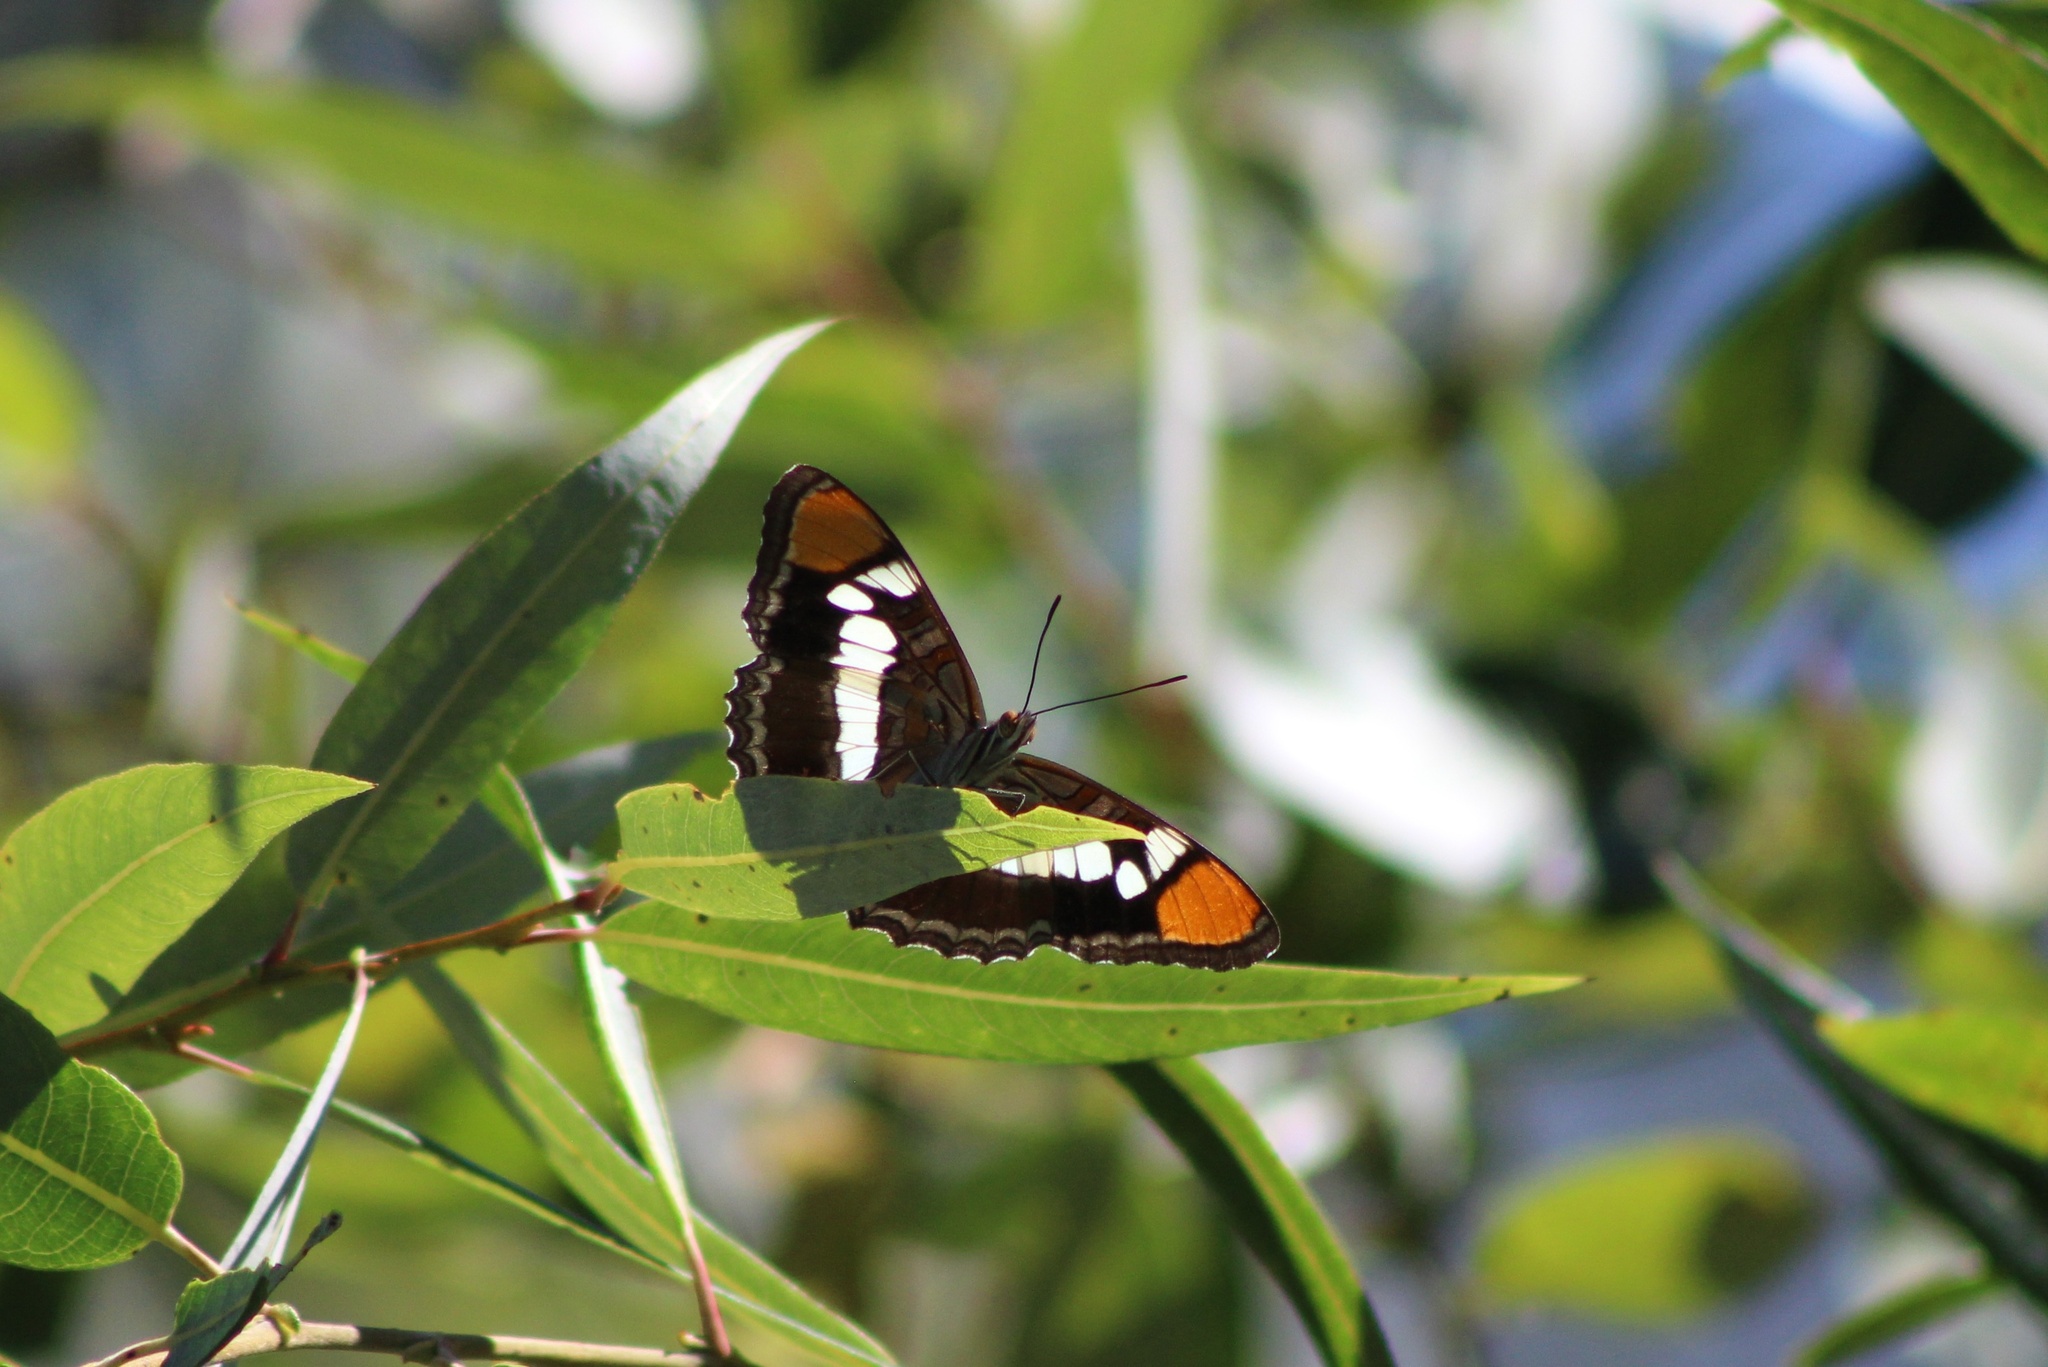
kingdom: Animalia
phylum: Arthropoda
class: Insecta
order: Lepidoptera
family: Nymphalidae
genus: Limenitis
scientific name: Limenitis bredowii
